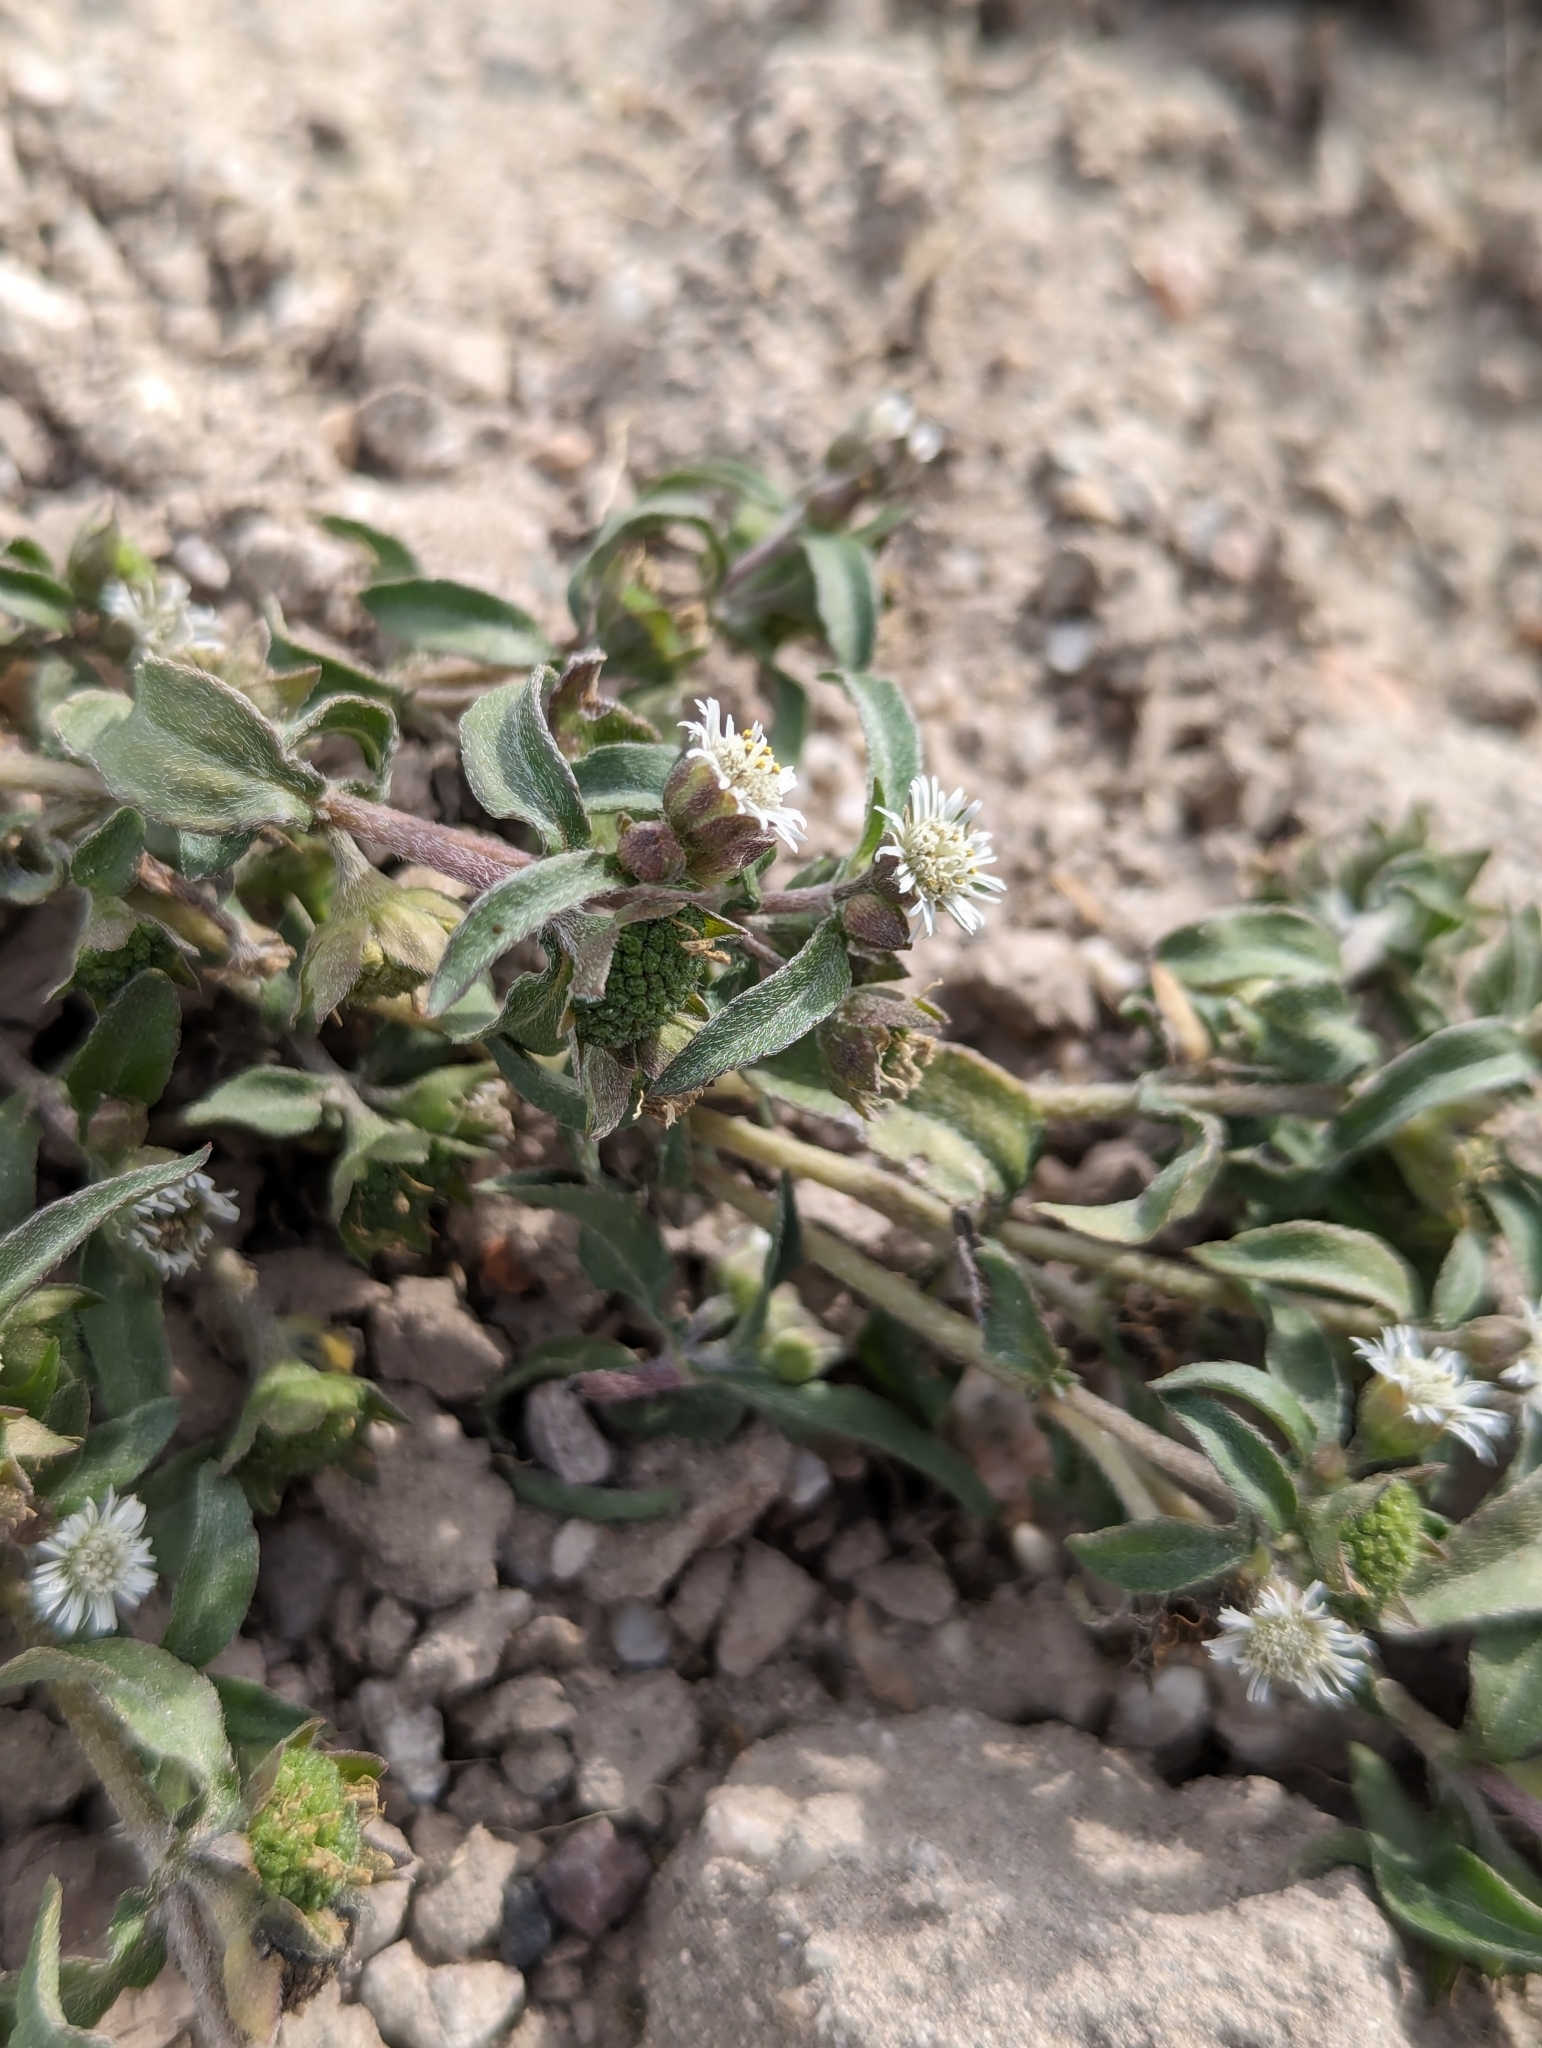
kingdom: Plantae
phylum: Tracheophyta
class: Magnoliopsida
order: Asterales
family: Asteraceae
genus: Eclipta
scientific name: Eclipta prostrata
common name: False daisy
